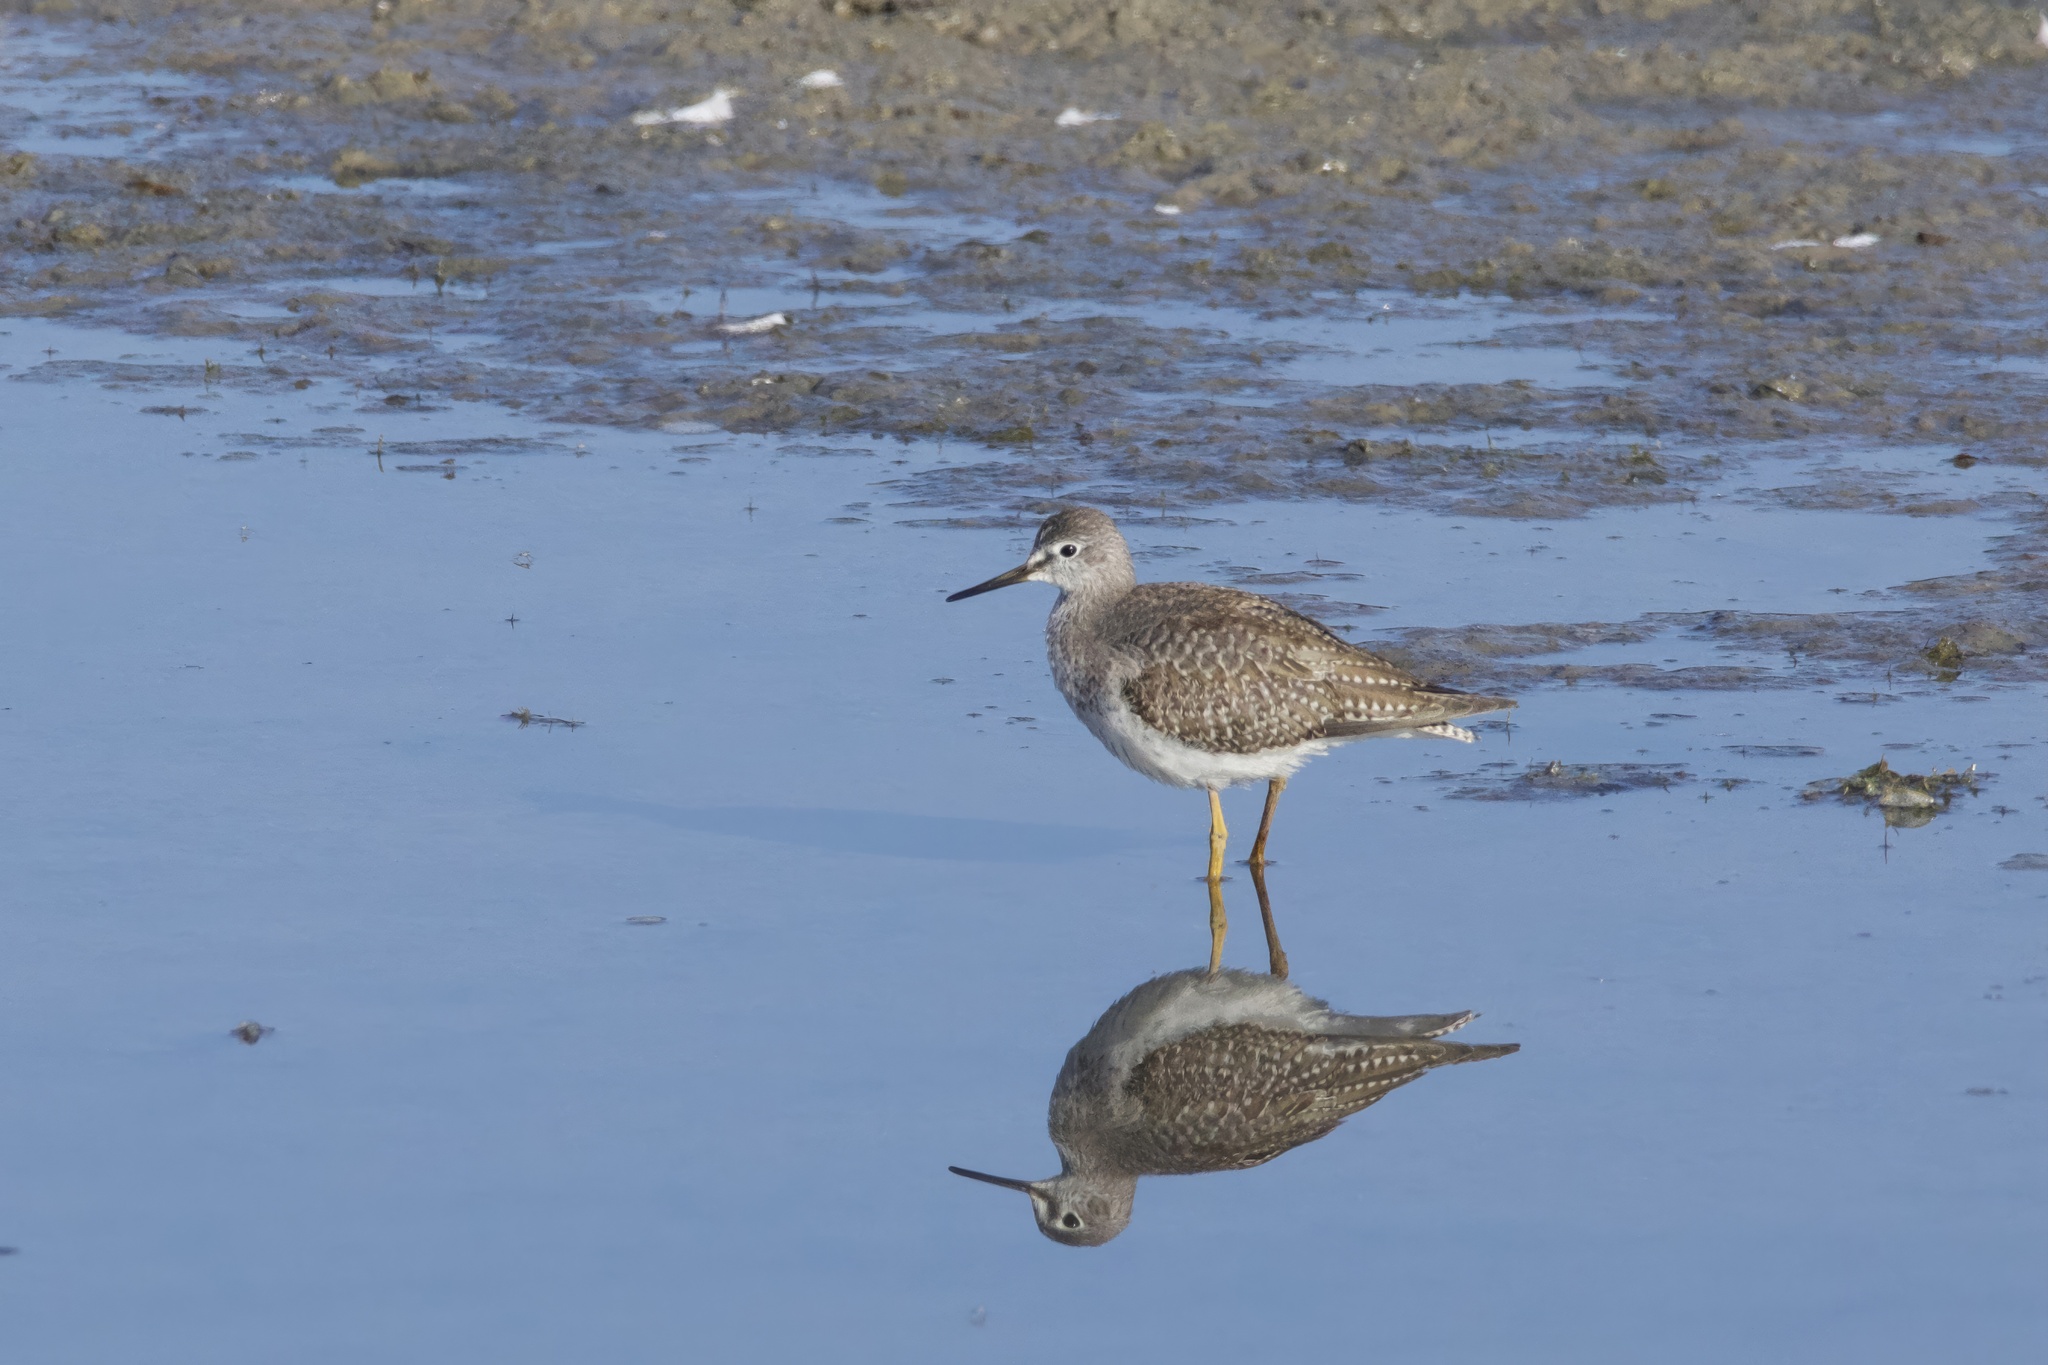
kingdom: Animalia
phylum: Chordata
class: Aves
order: Charadriiformes
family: Scolopacidae
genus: Tringa
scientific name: Tringa flavipes
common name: Lesser yellowlegs
